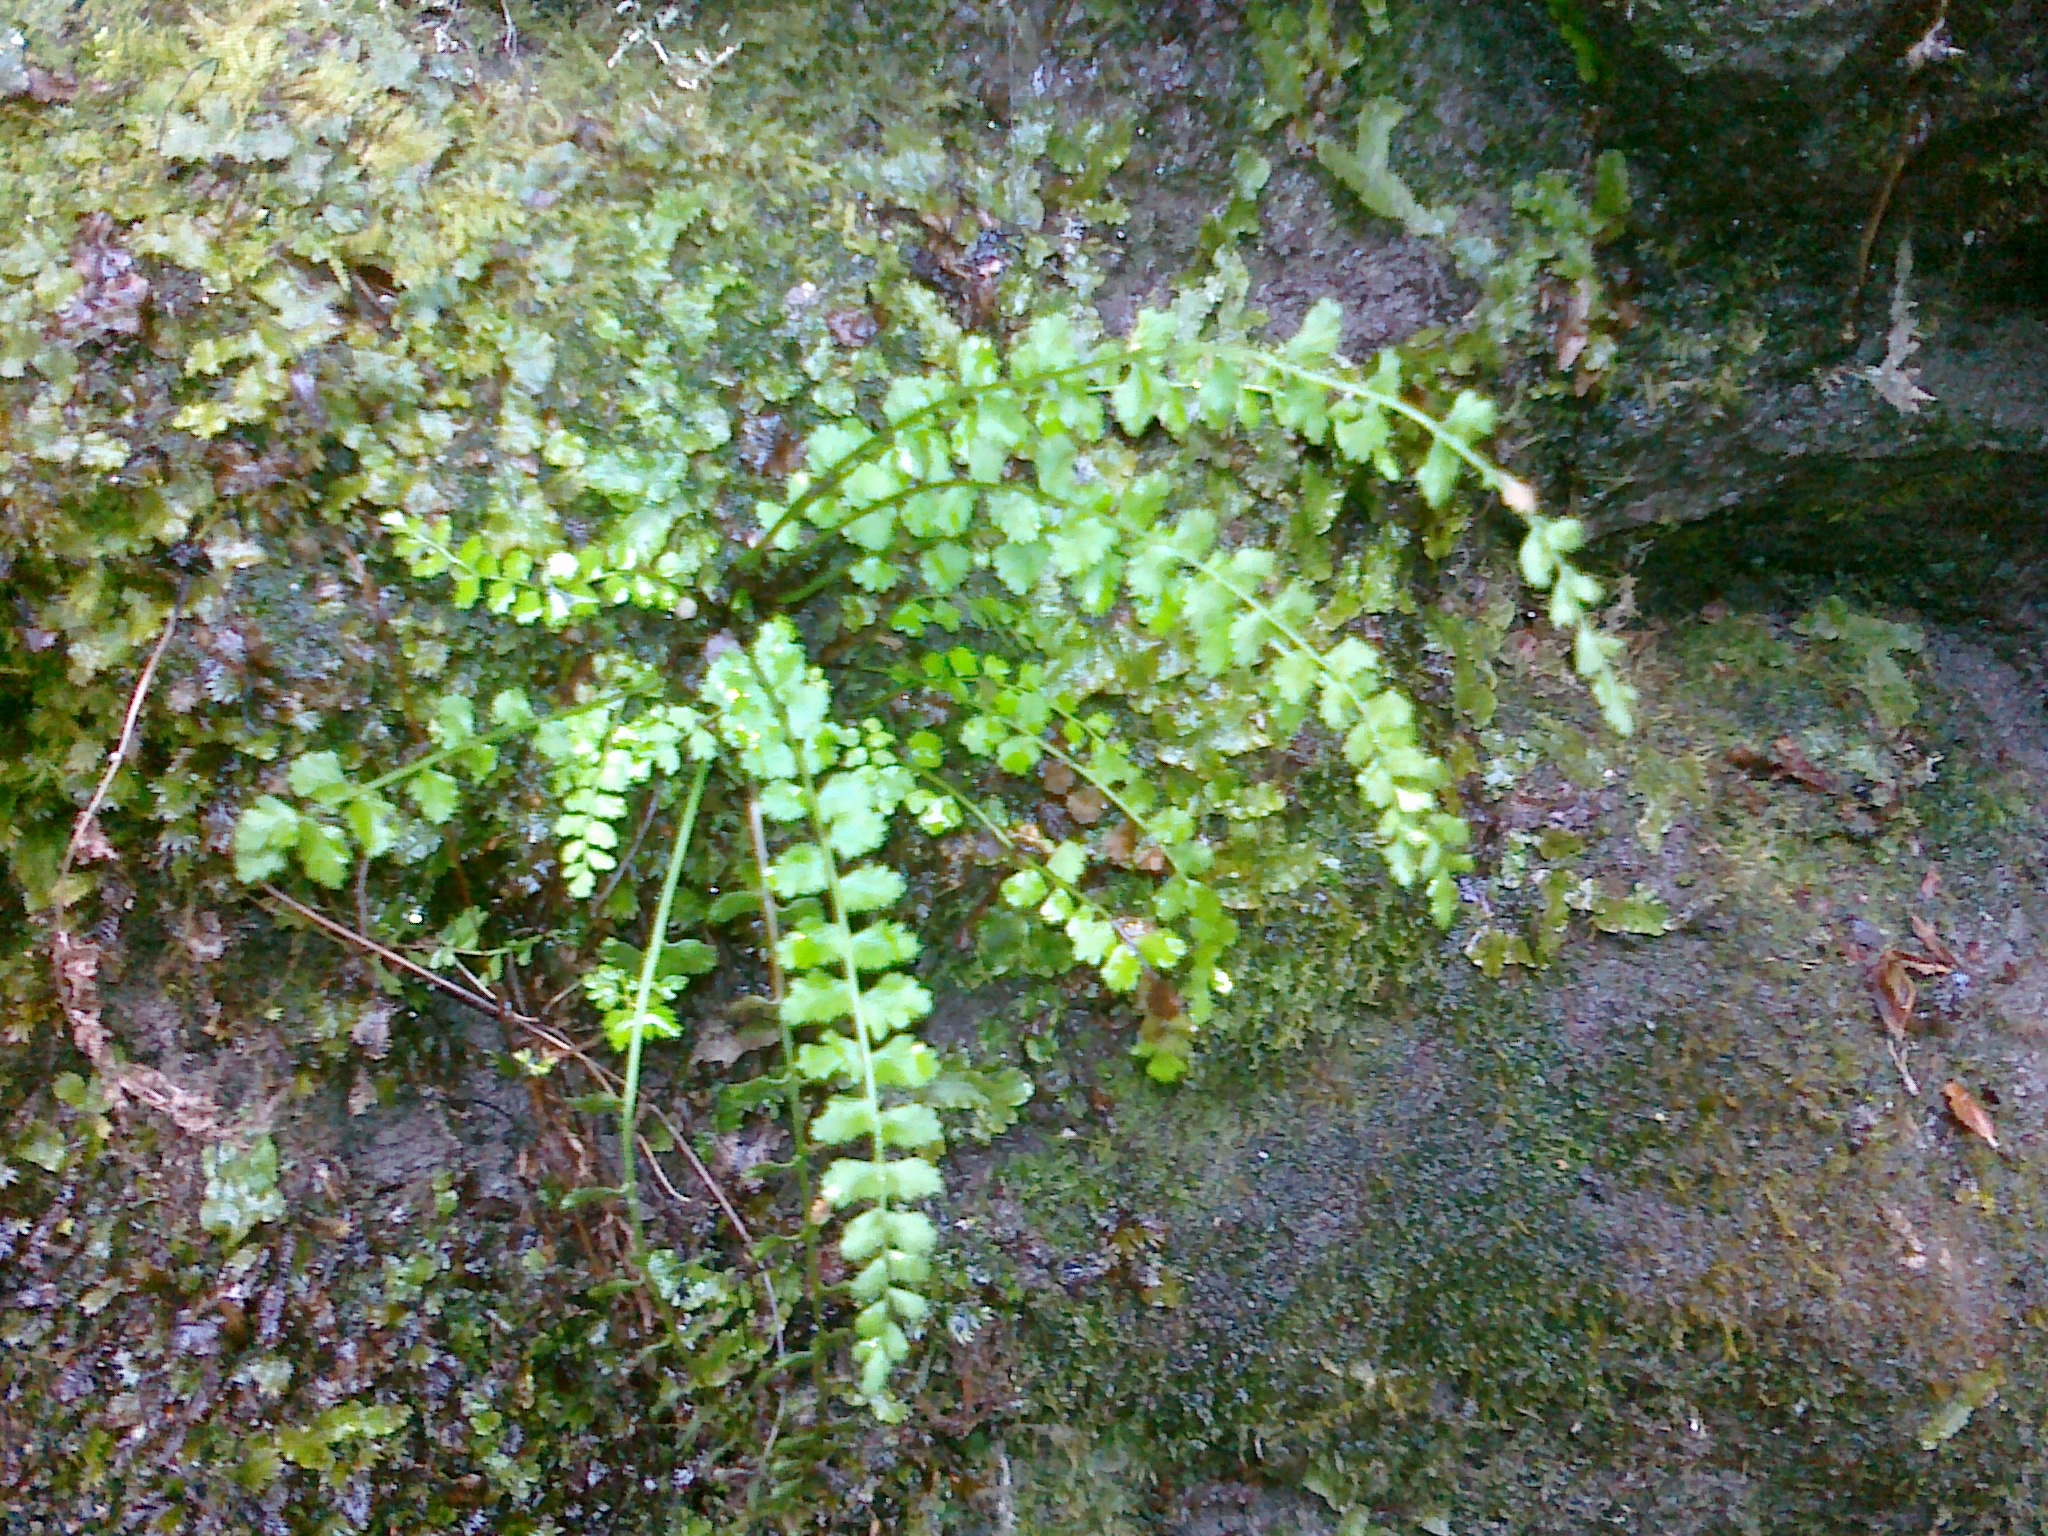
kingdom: Plantae
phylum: Tracheophyta
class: Polypodiopsida
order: Polypodiales
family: Aspleniaceae
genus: Asplenium
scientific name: Asplenium viride
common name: Green spleenwort
